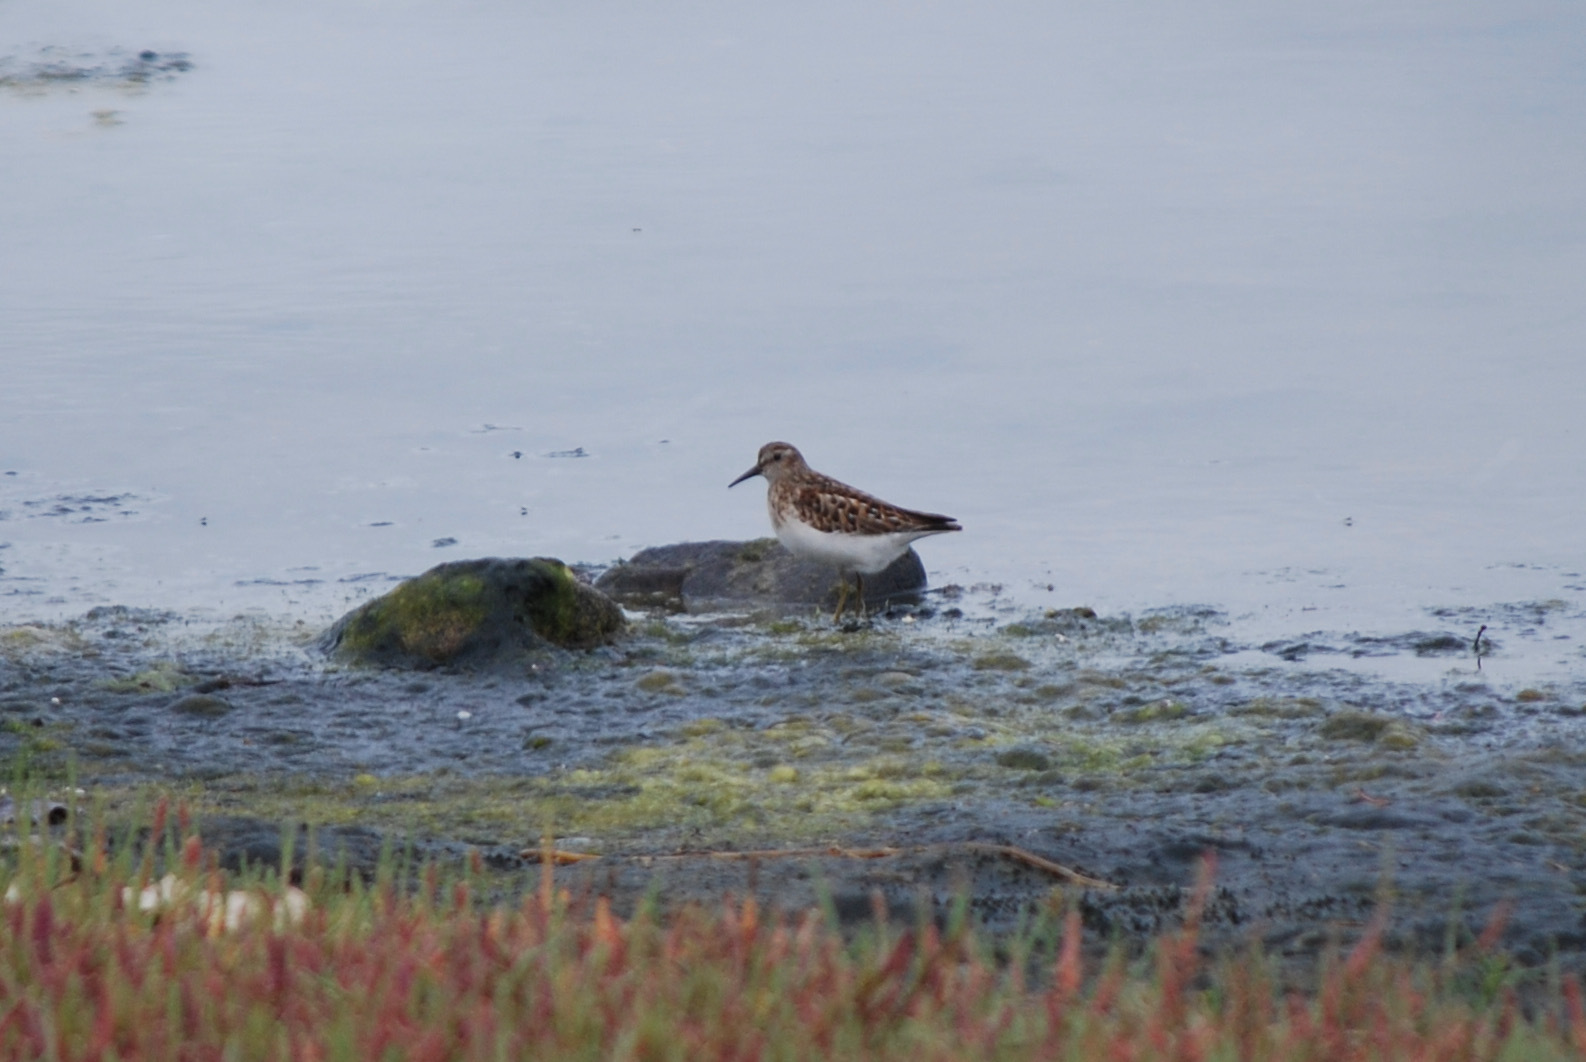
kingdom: Animalia
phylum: Chordata
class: Aves
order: Charadriiformes
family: Scolopacidae
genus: Calidris
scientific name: Calidris minutilla
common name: Least sandpiper
